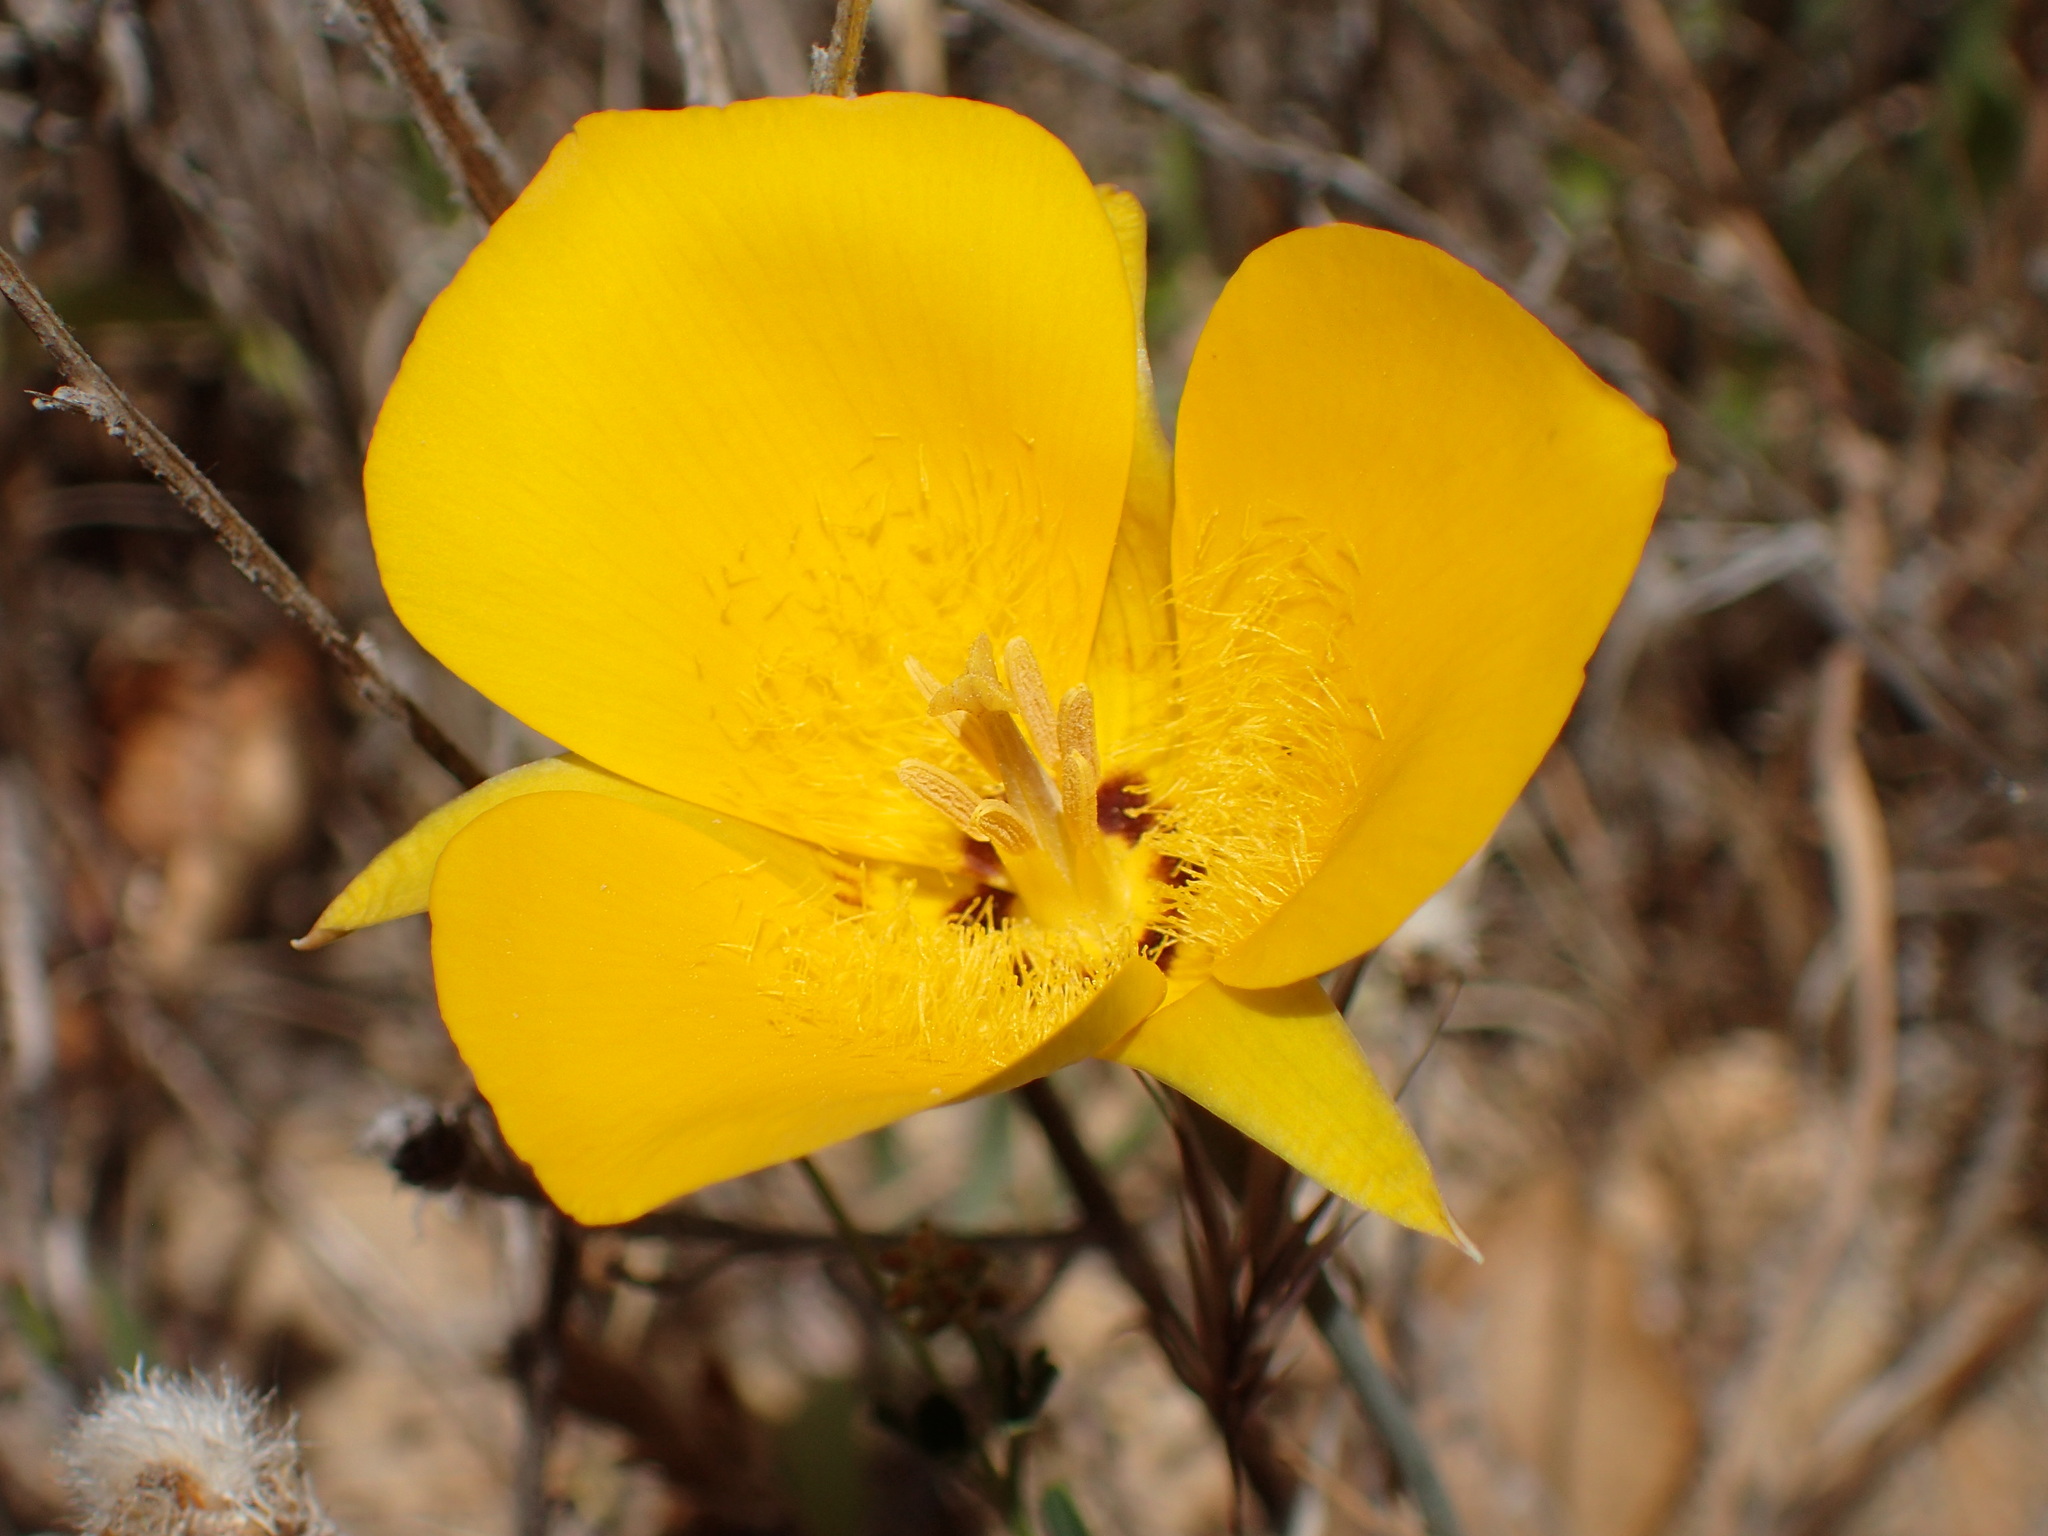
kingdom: Plantae
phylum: Tracheophyta
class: Liliopsida
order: Liliales
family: Liliaceae
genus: Calochortus
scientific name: Calochortus clavatus
